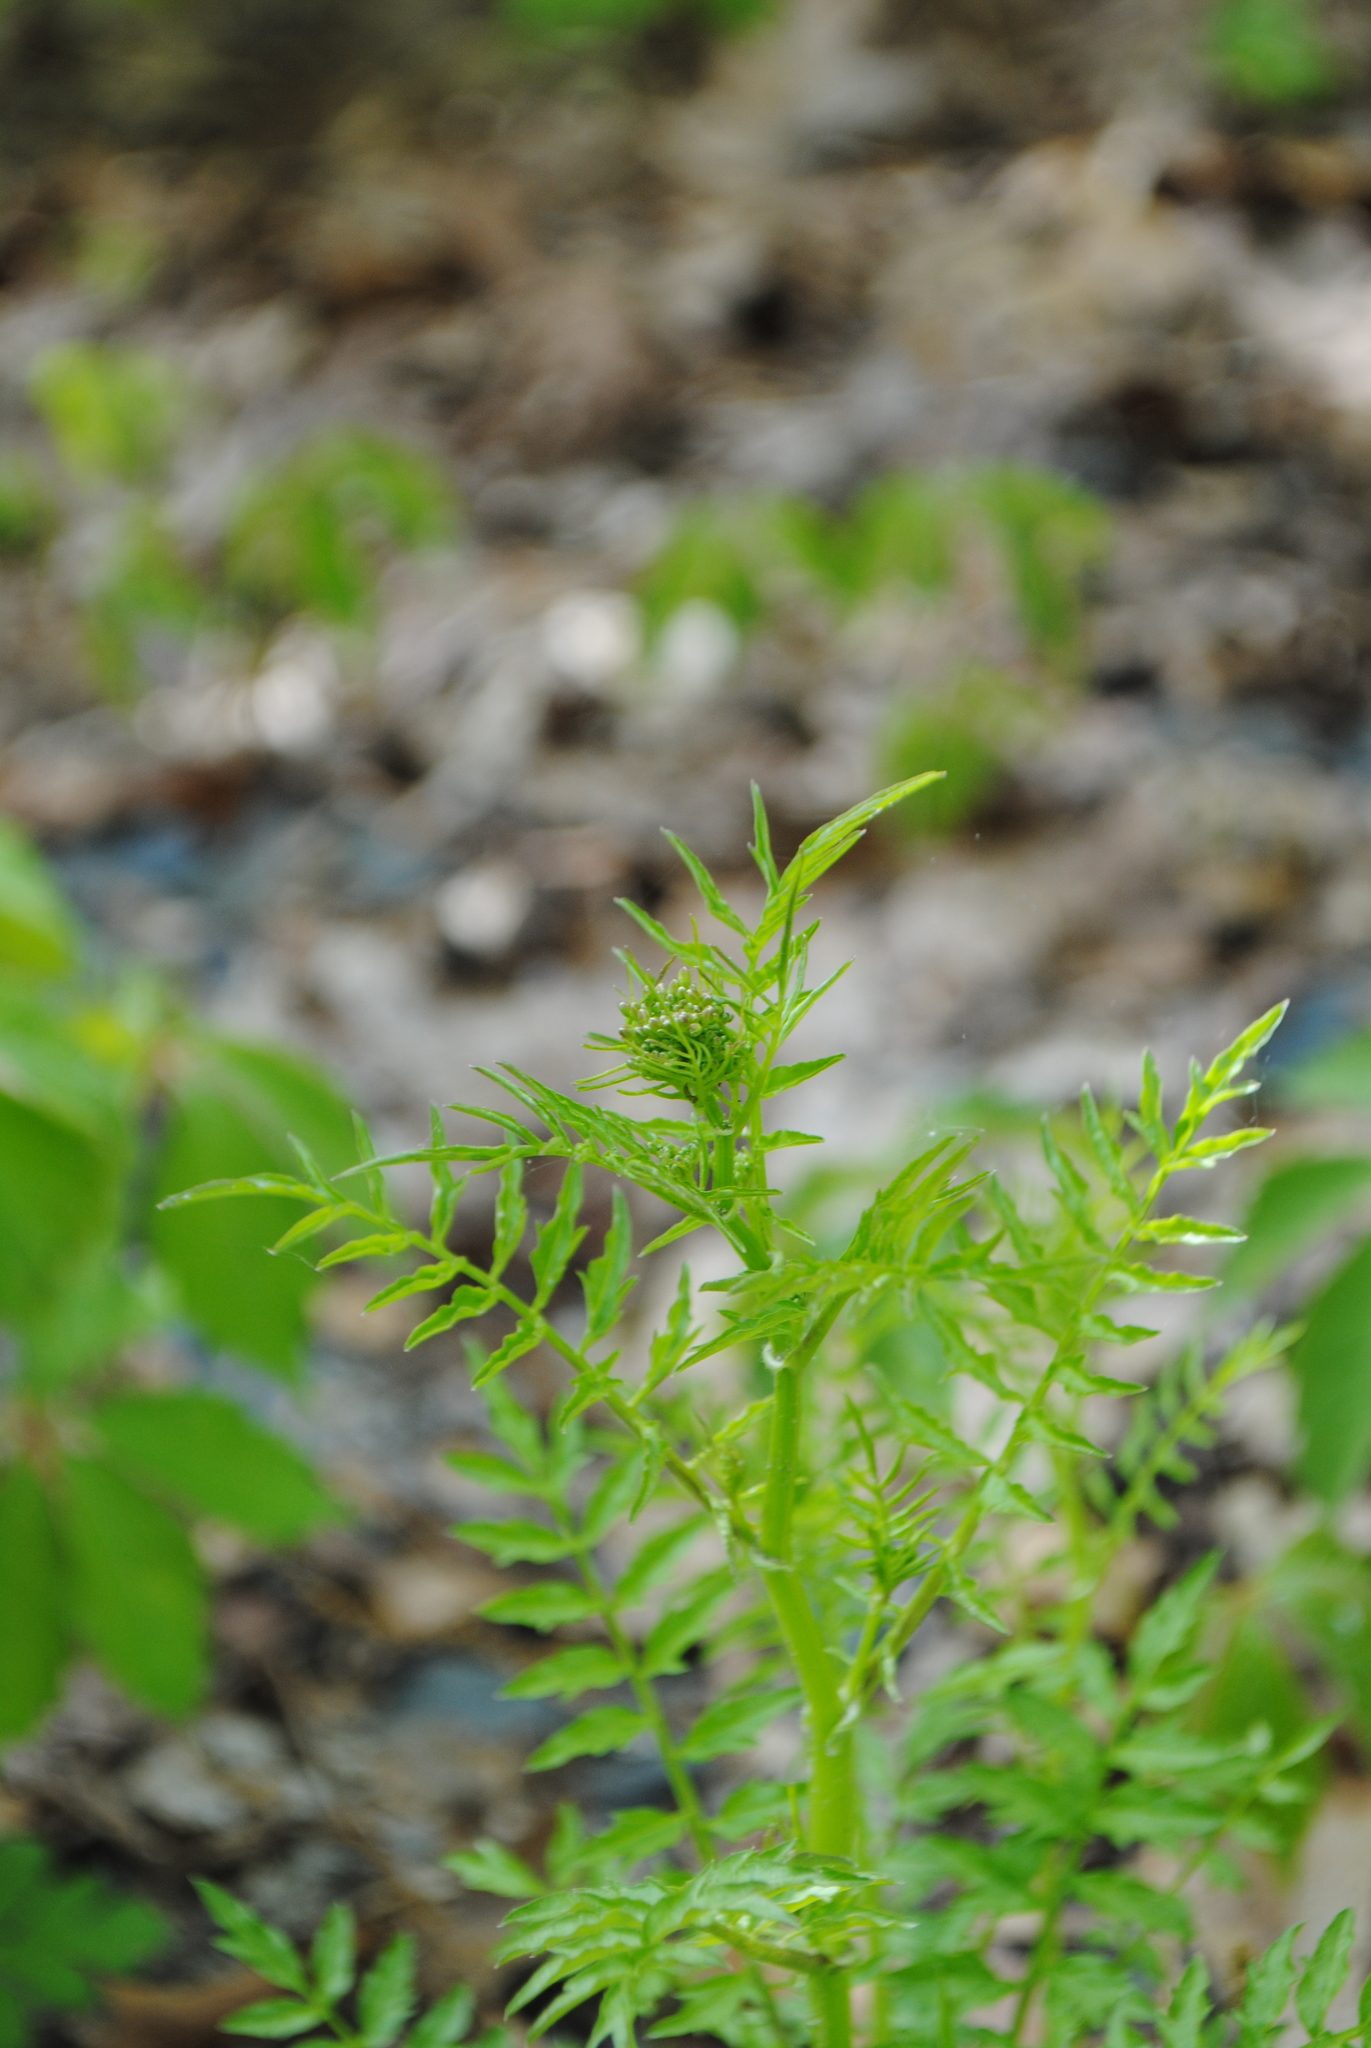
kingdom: Plantae
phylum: Tracheophyta
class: Magnoliopsida
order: Brassicales
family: Brassicaceae
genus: Cardamine
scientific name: Cardamine impatiens
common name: Narrow-leaved bitter-cress
